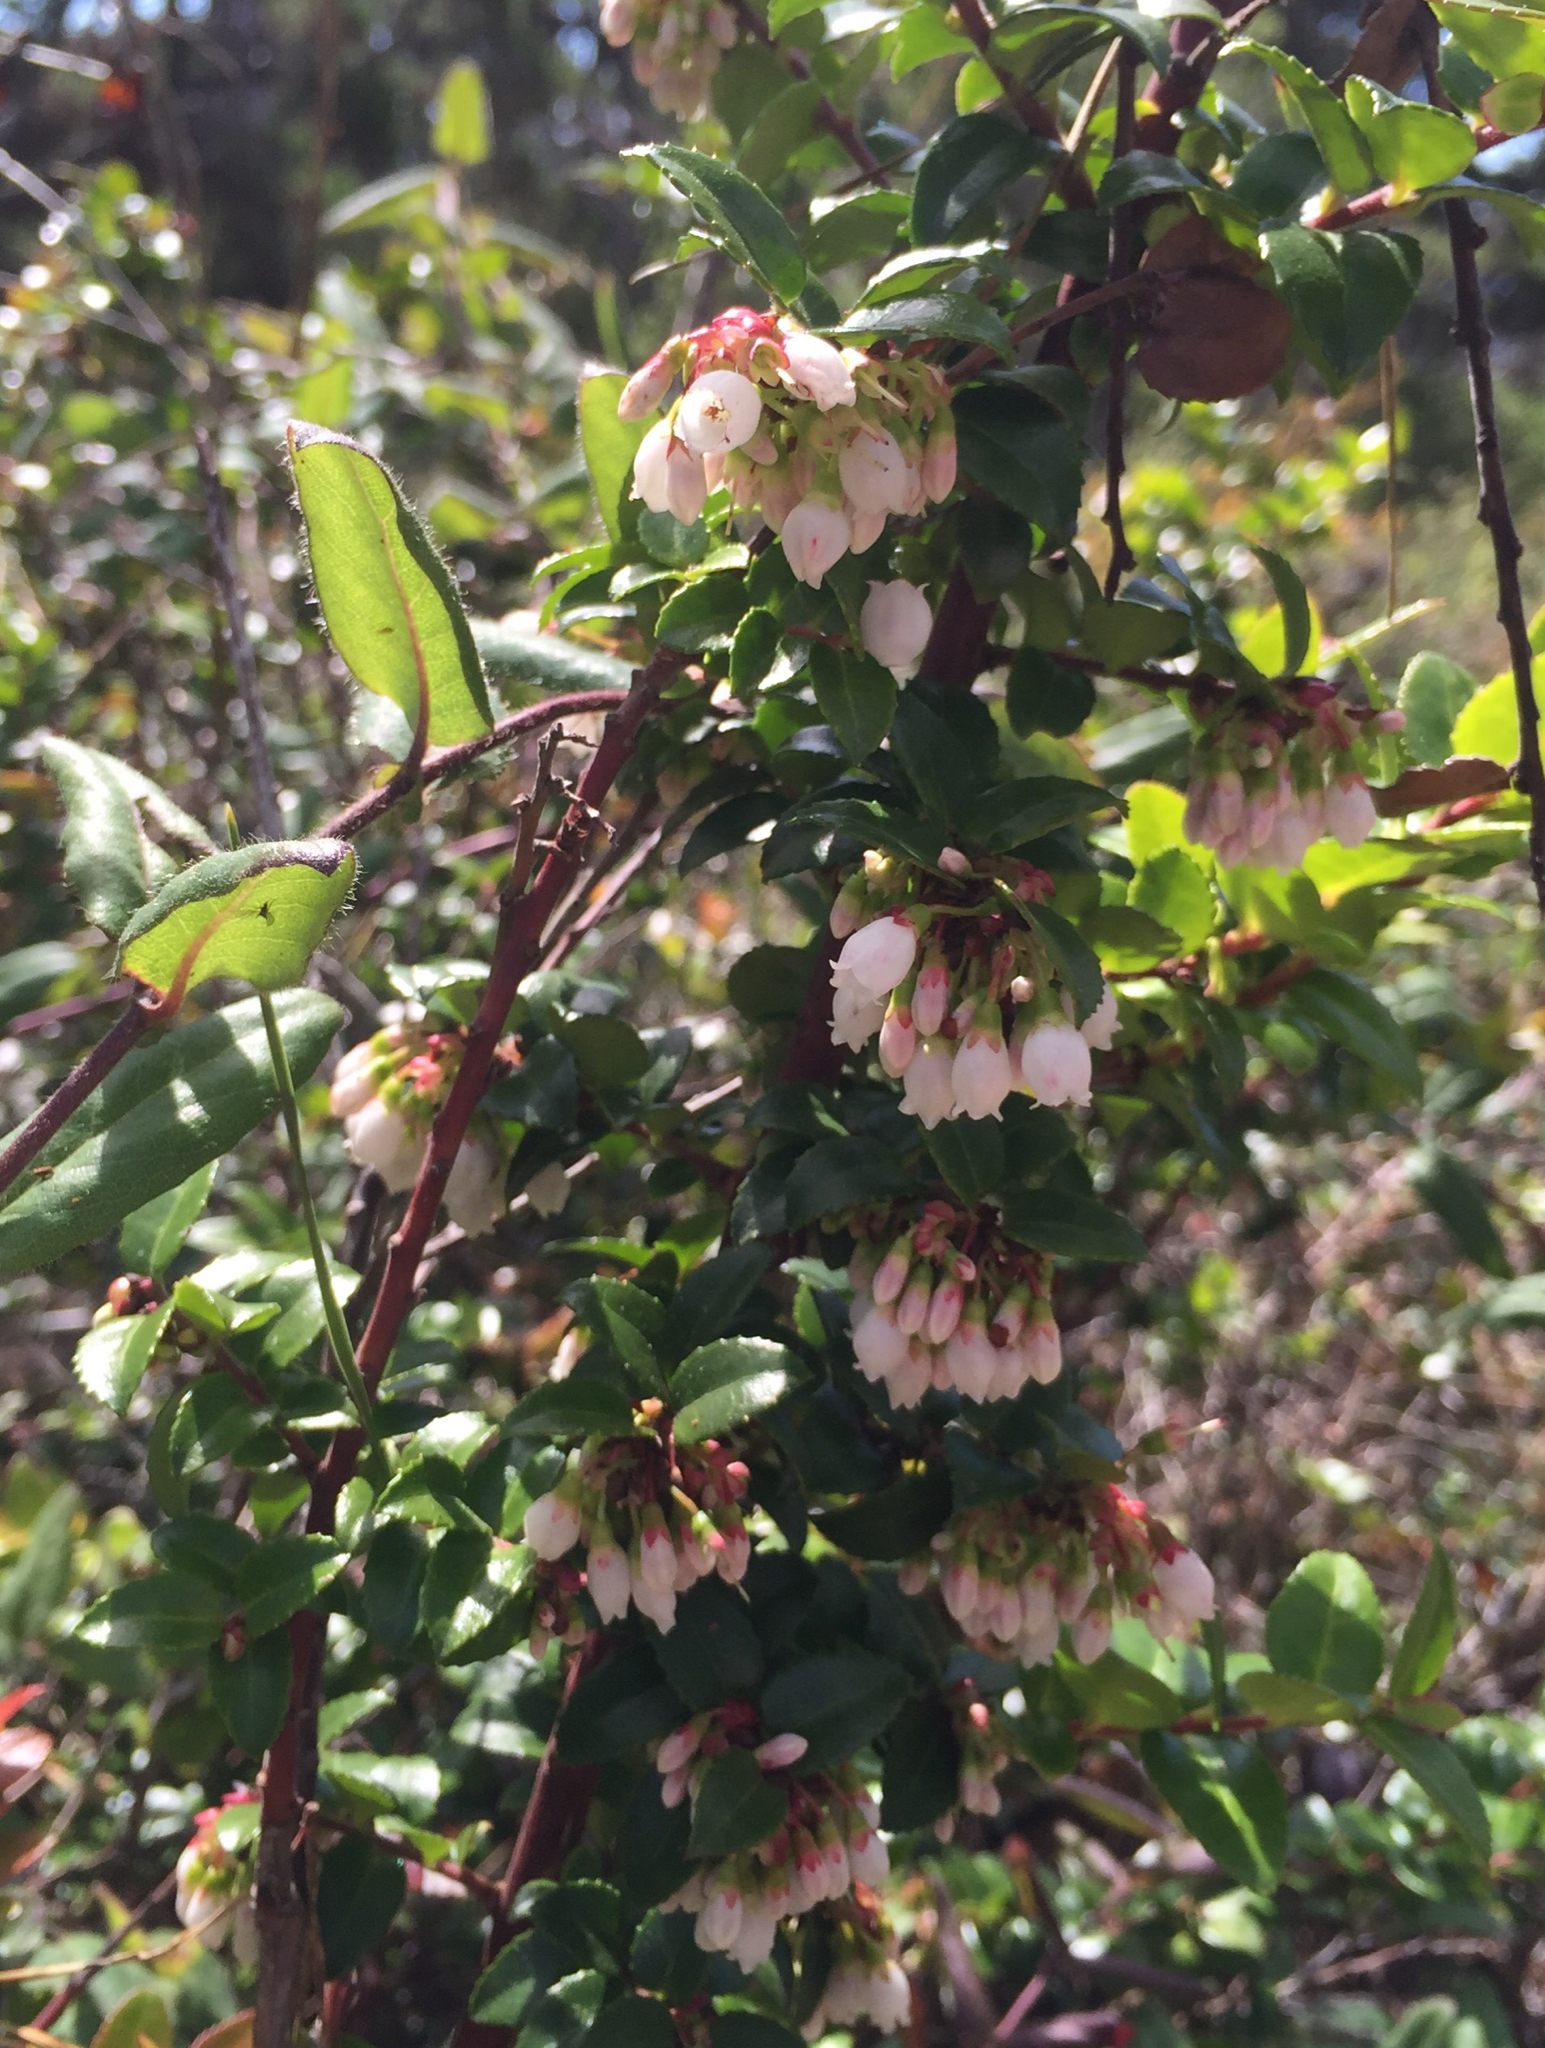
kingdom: Plantae
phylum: Tracheophyta
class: Magnoliopsida
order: Ericales
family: Ericaceae
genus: Vaccinium
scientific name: Vaccinium ovatum
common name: California-huckleberry
